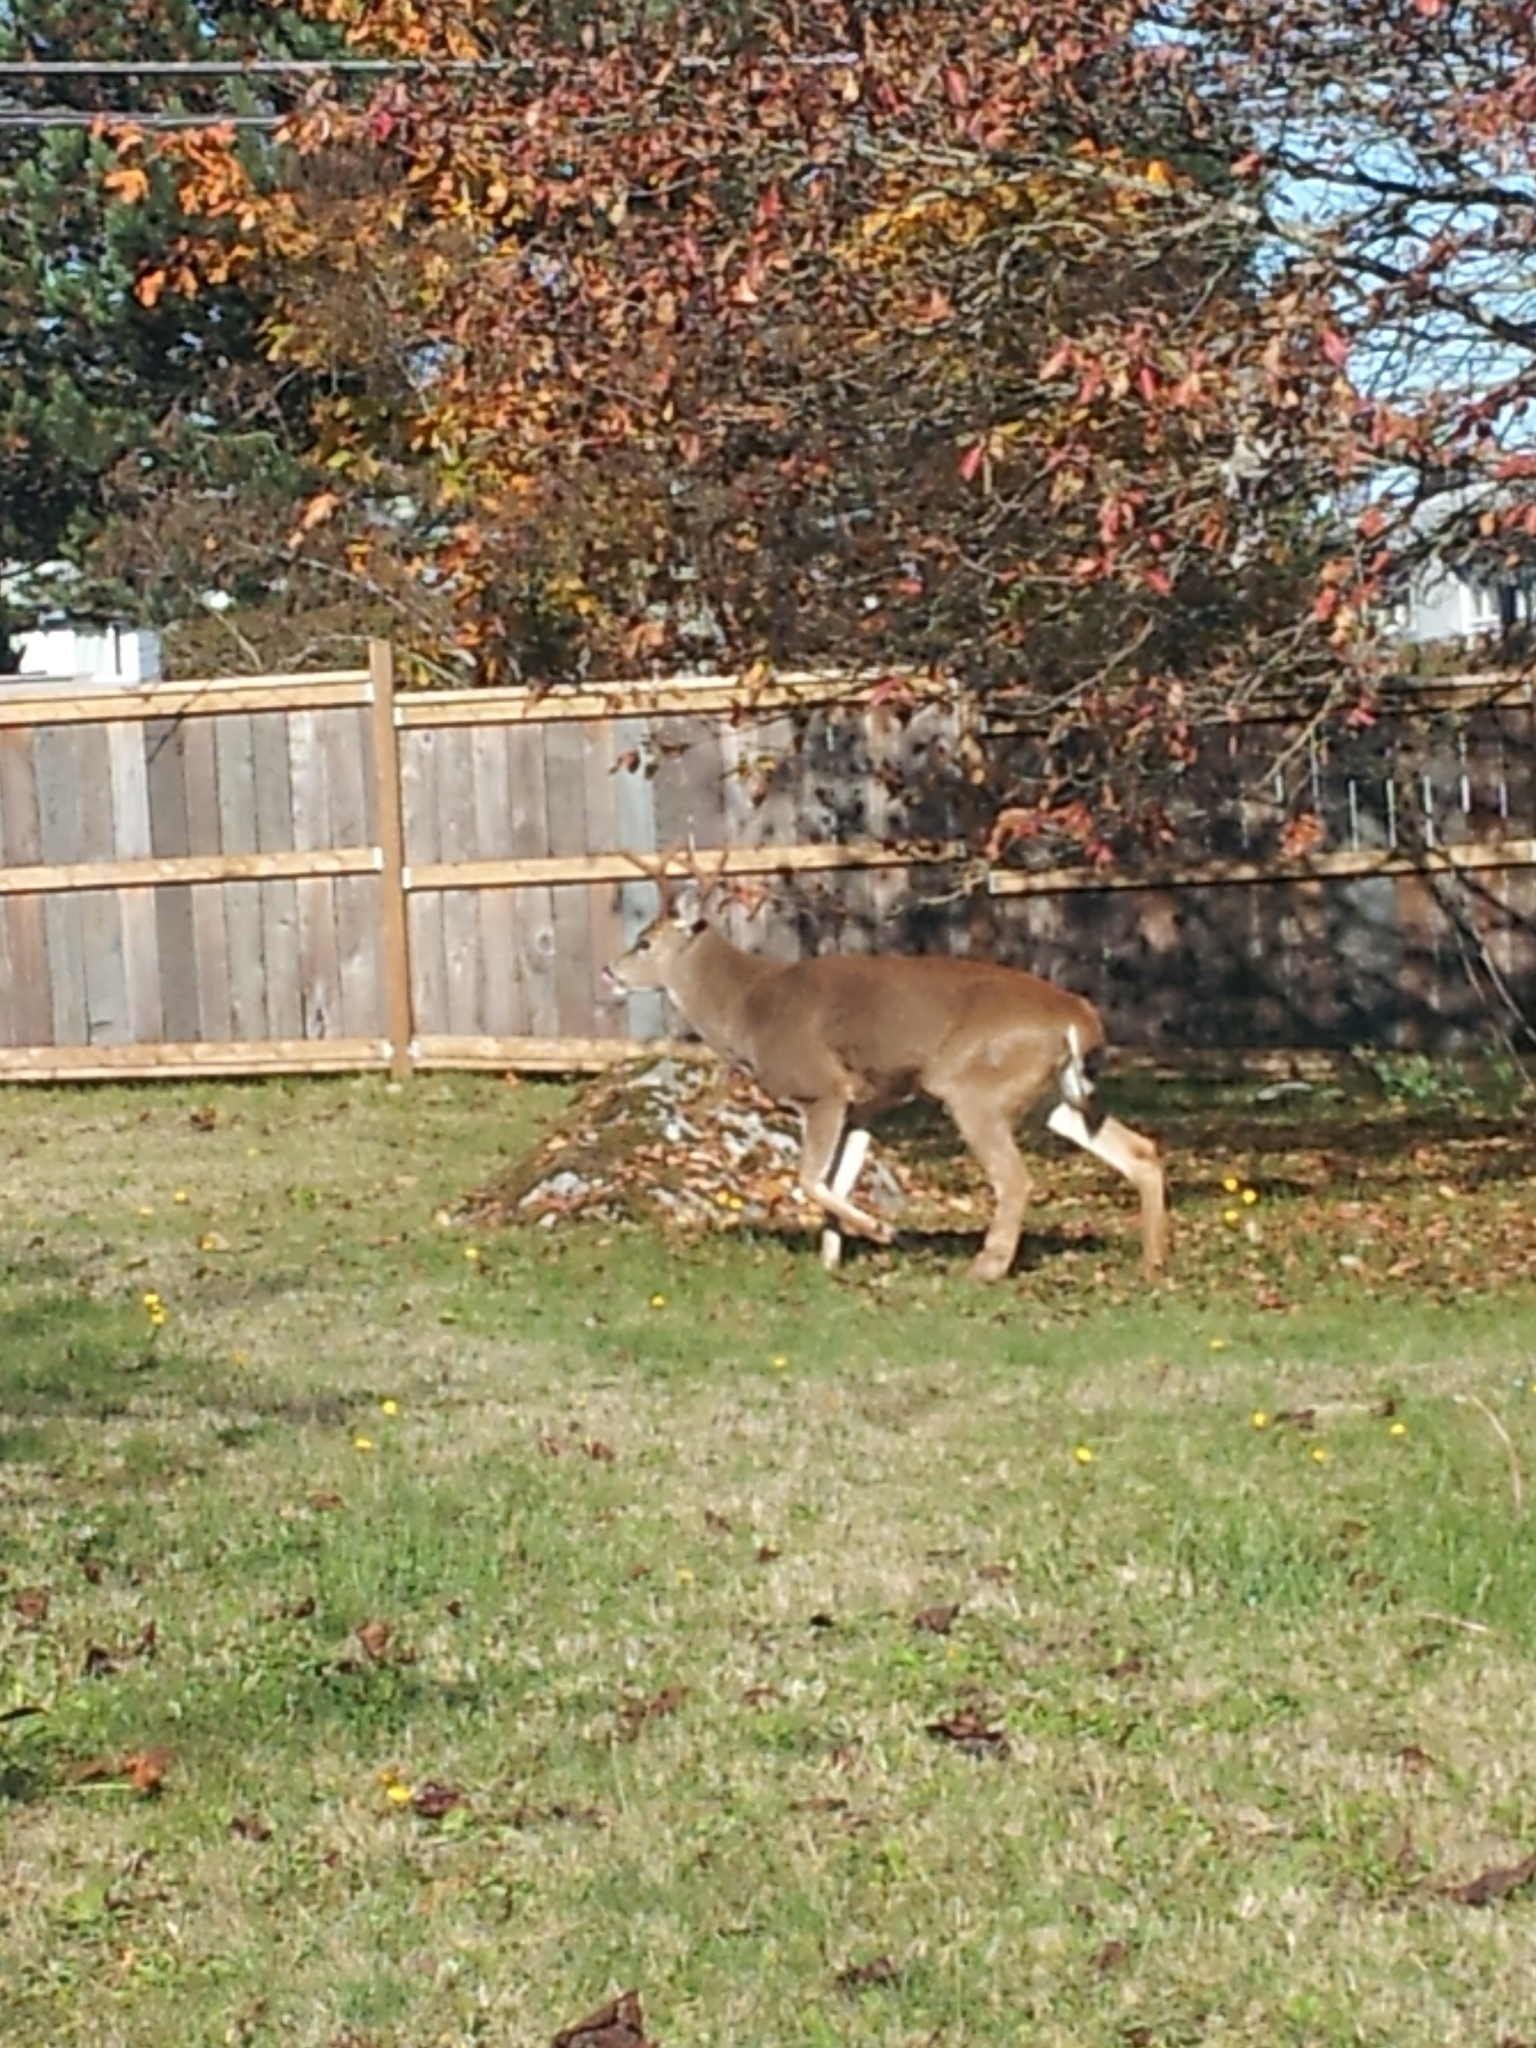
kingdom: Animalia
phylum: Chordata
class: Mammalia
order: Artiodactyla
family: Cervidae
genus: Odocoileus
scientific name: Odocoileus hemionus
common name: Mule deer
